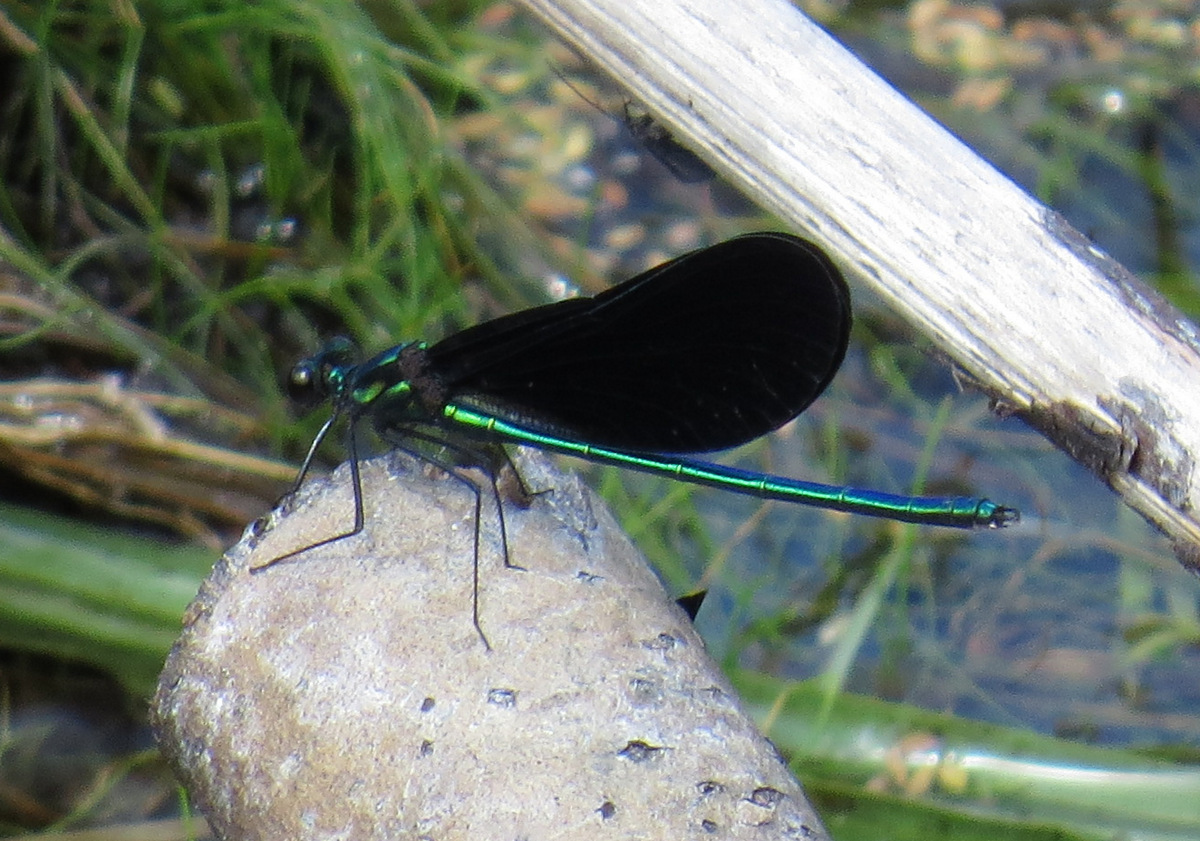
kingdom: Animalia
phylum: Arthropoda
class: Insecta
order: Odonata
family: Calopterygidae
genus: Calopteryx
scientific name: Calopteryx maculata
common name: Ebony jewelwing
